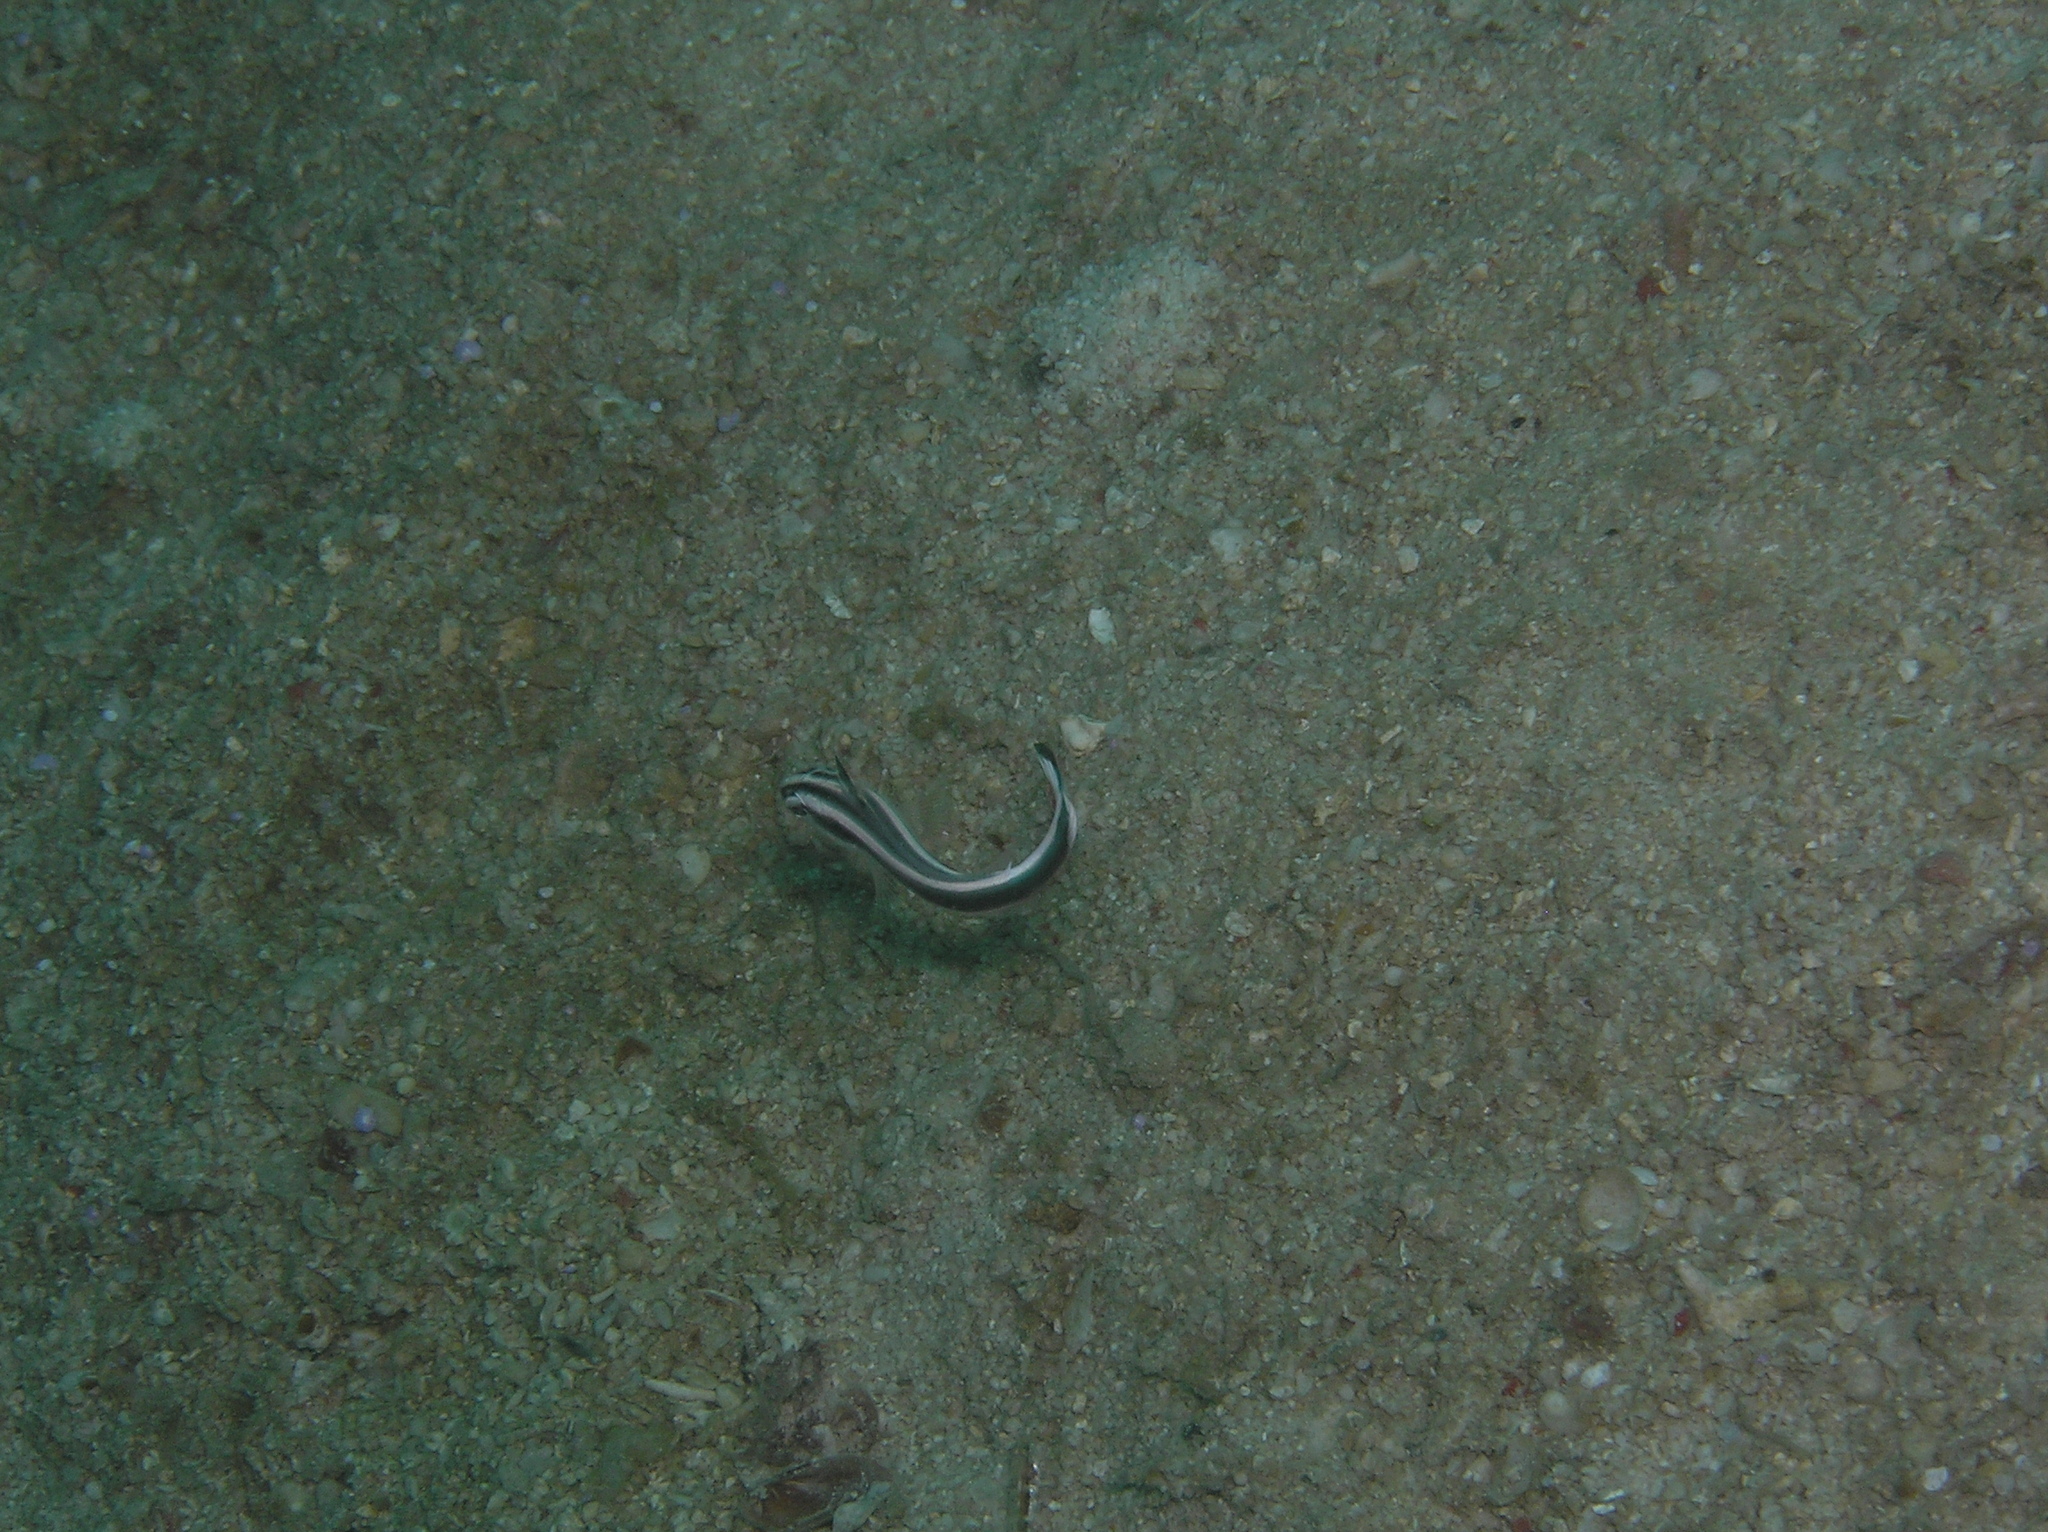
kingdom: Animalia
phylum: Chordata
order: Perciformes
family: Haemulidae
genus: Diagramma
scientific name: Diagramma pictum
